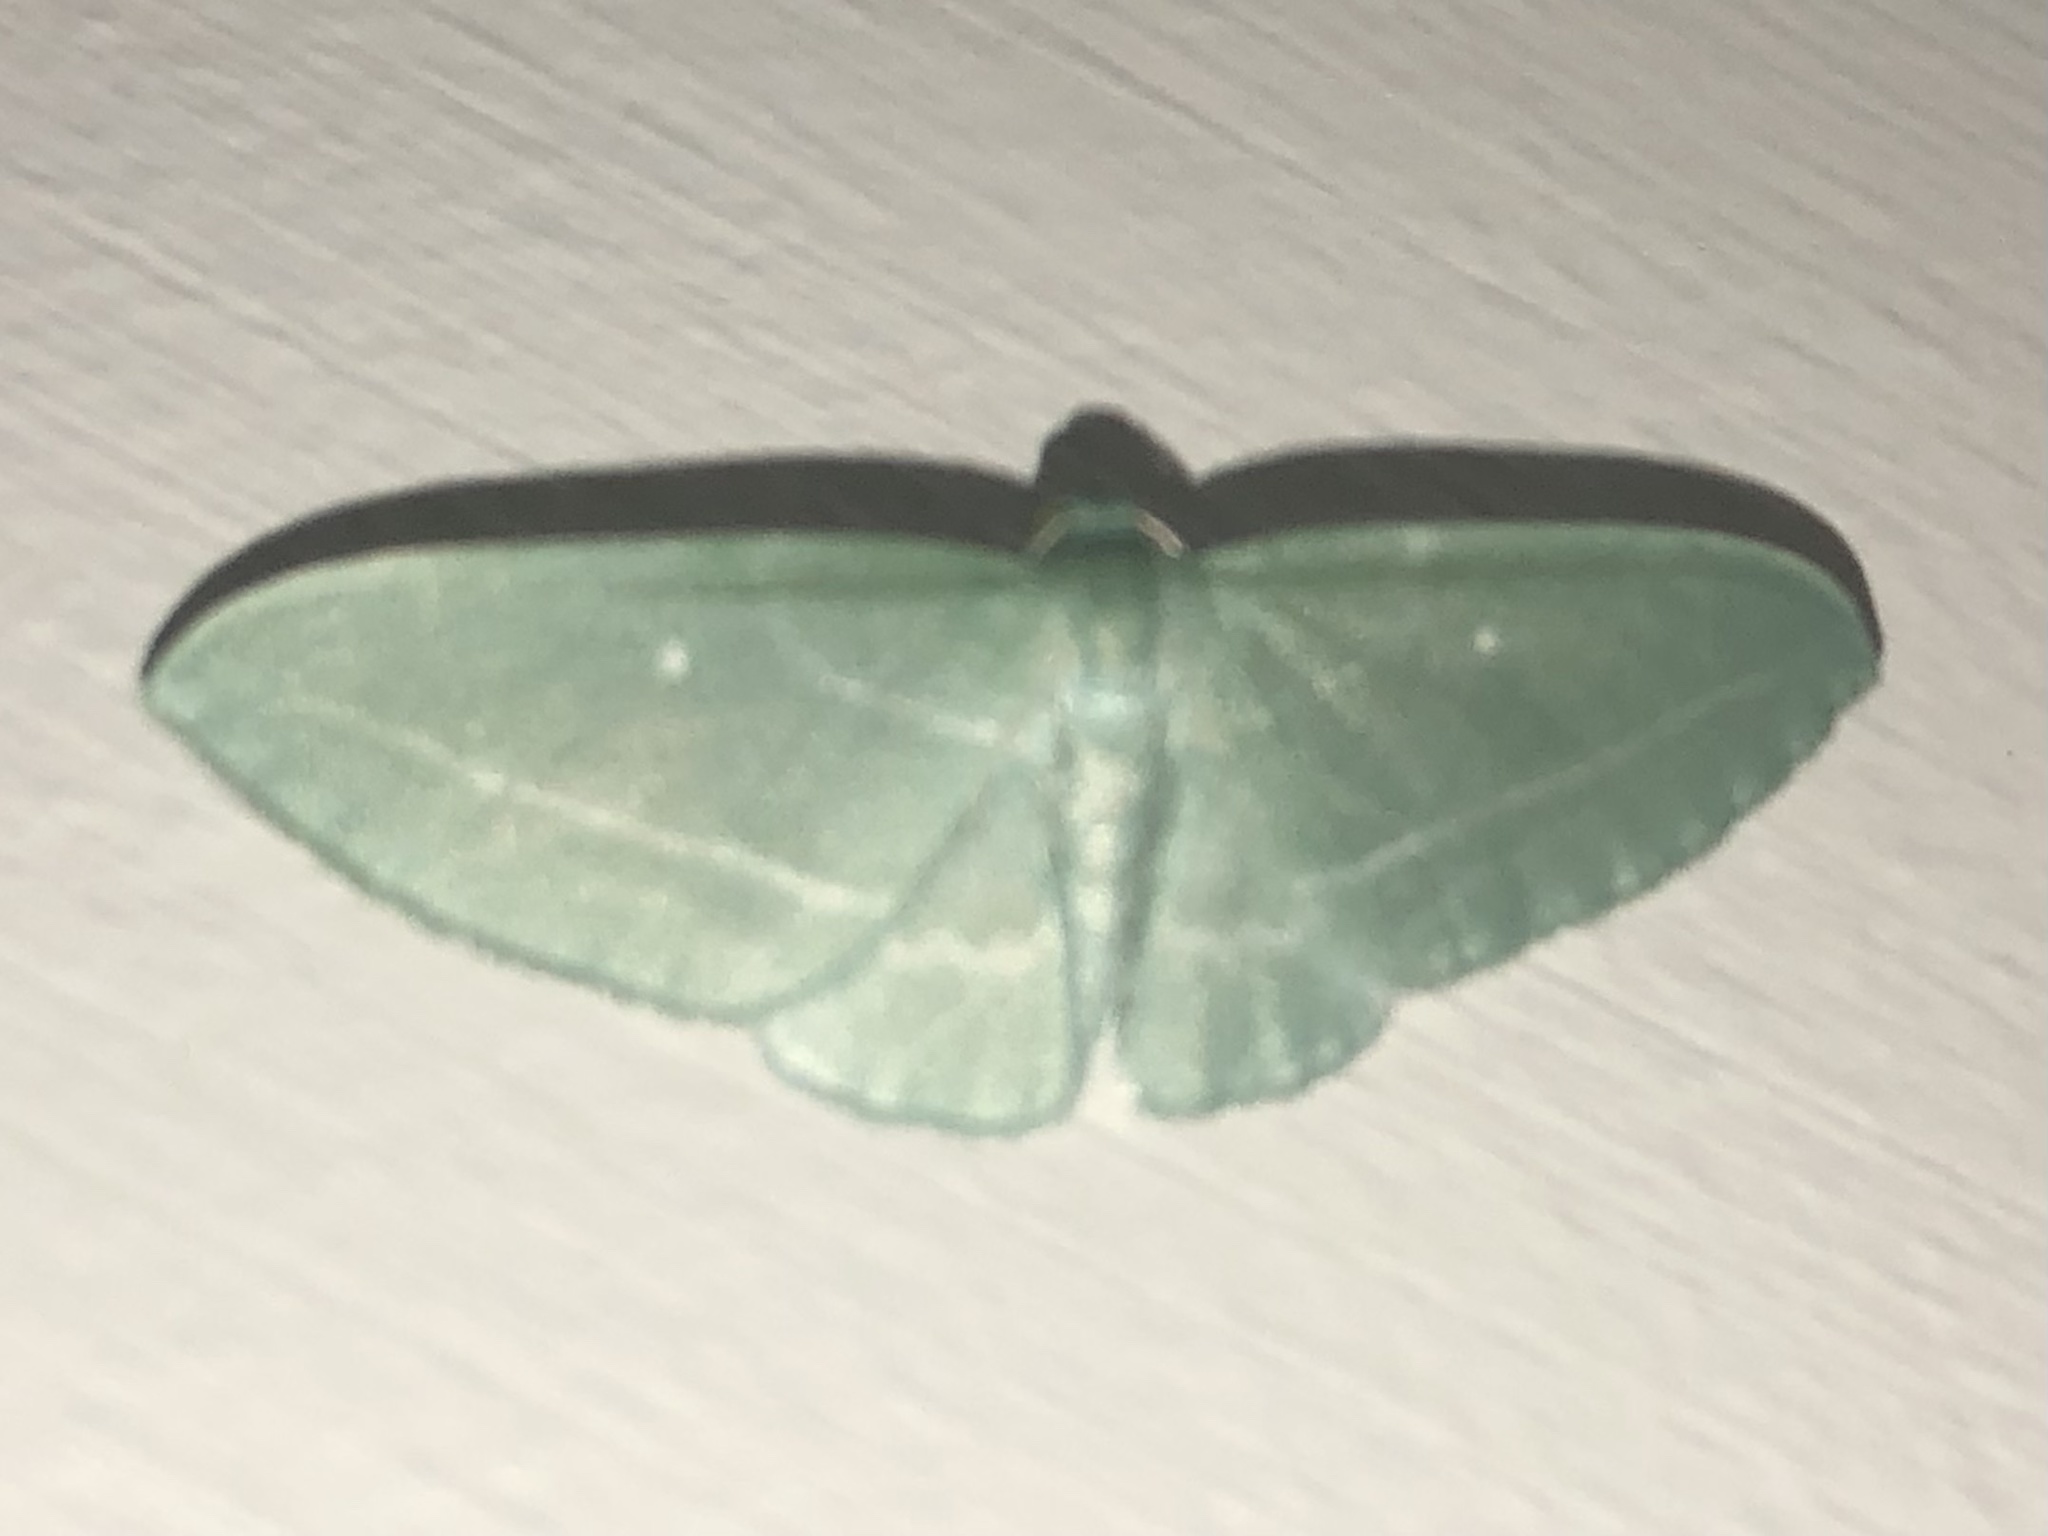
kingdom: Animalia
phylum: Arthropoda
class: Insecta
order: Lepidoptera
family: Geometridae
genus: Dyspteris
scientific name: Dyspteris abortivaria
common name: Bad-wing
